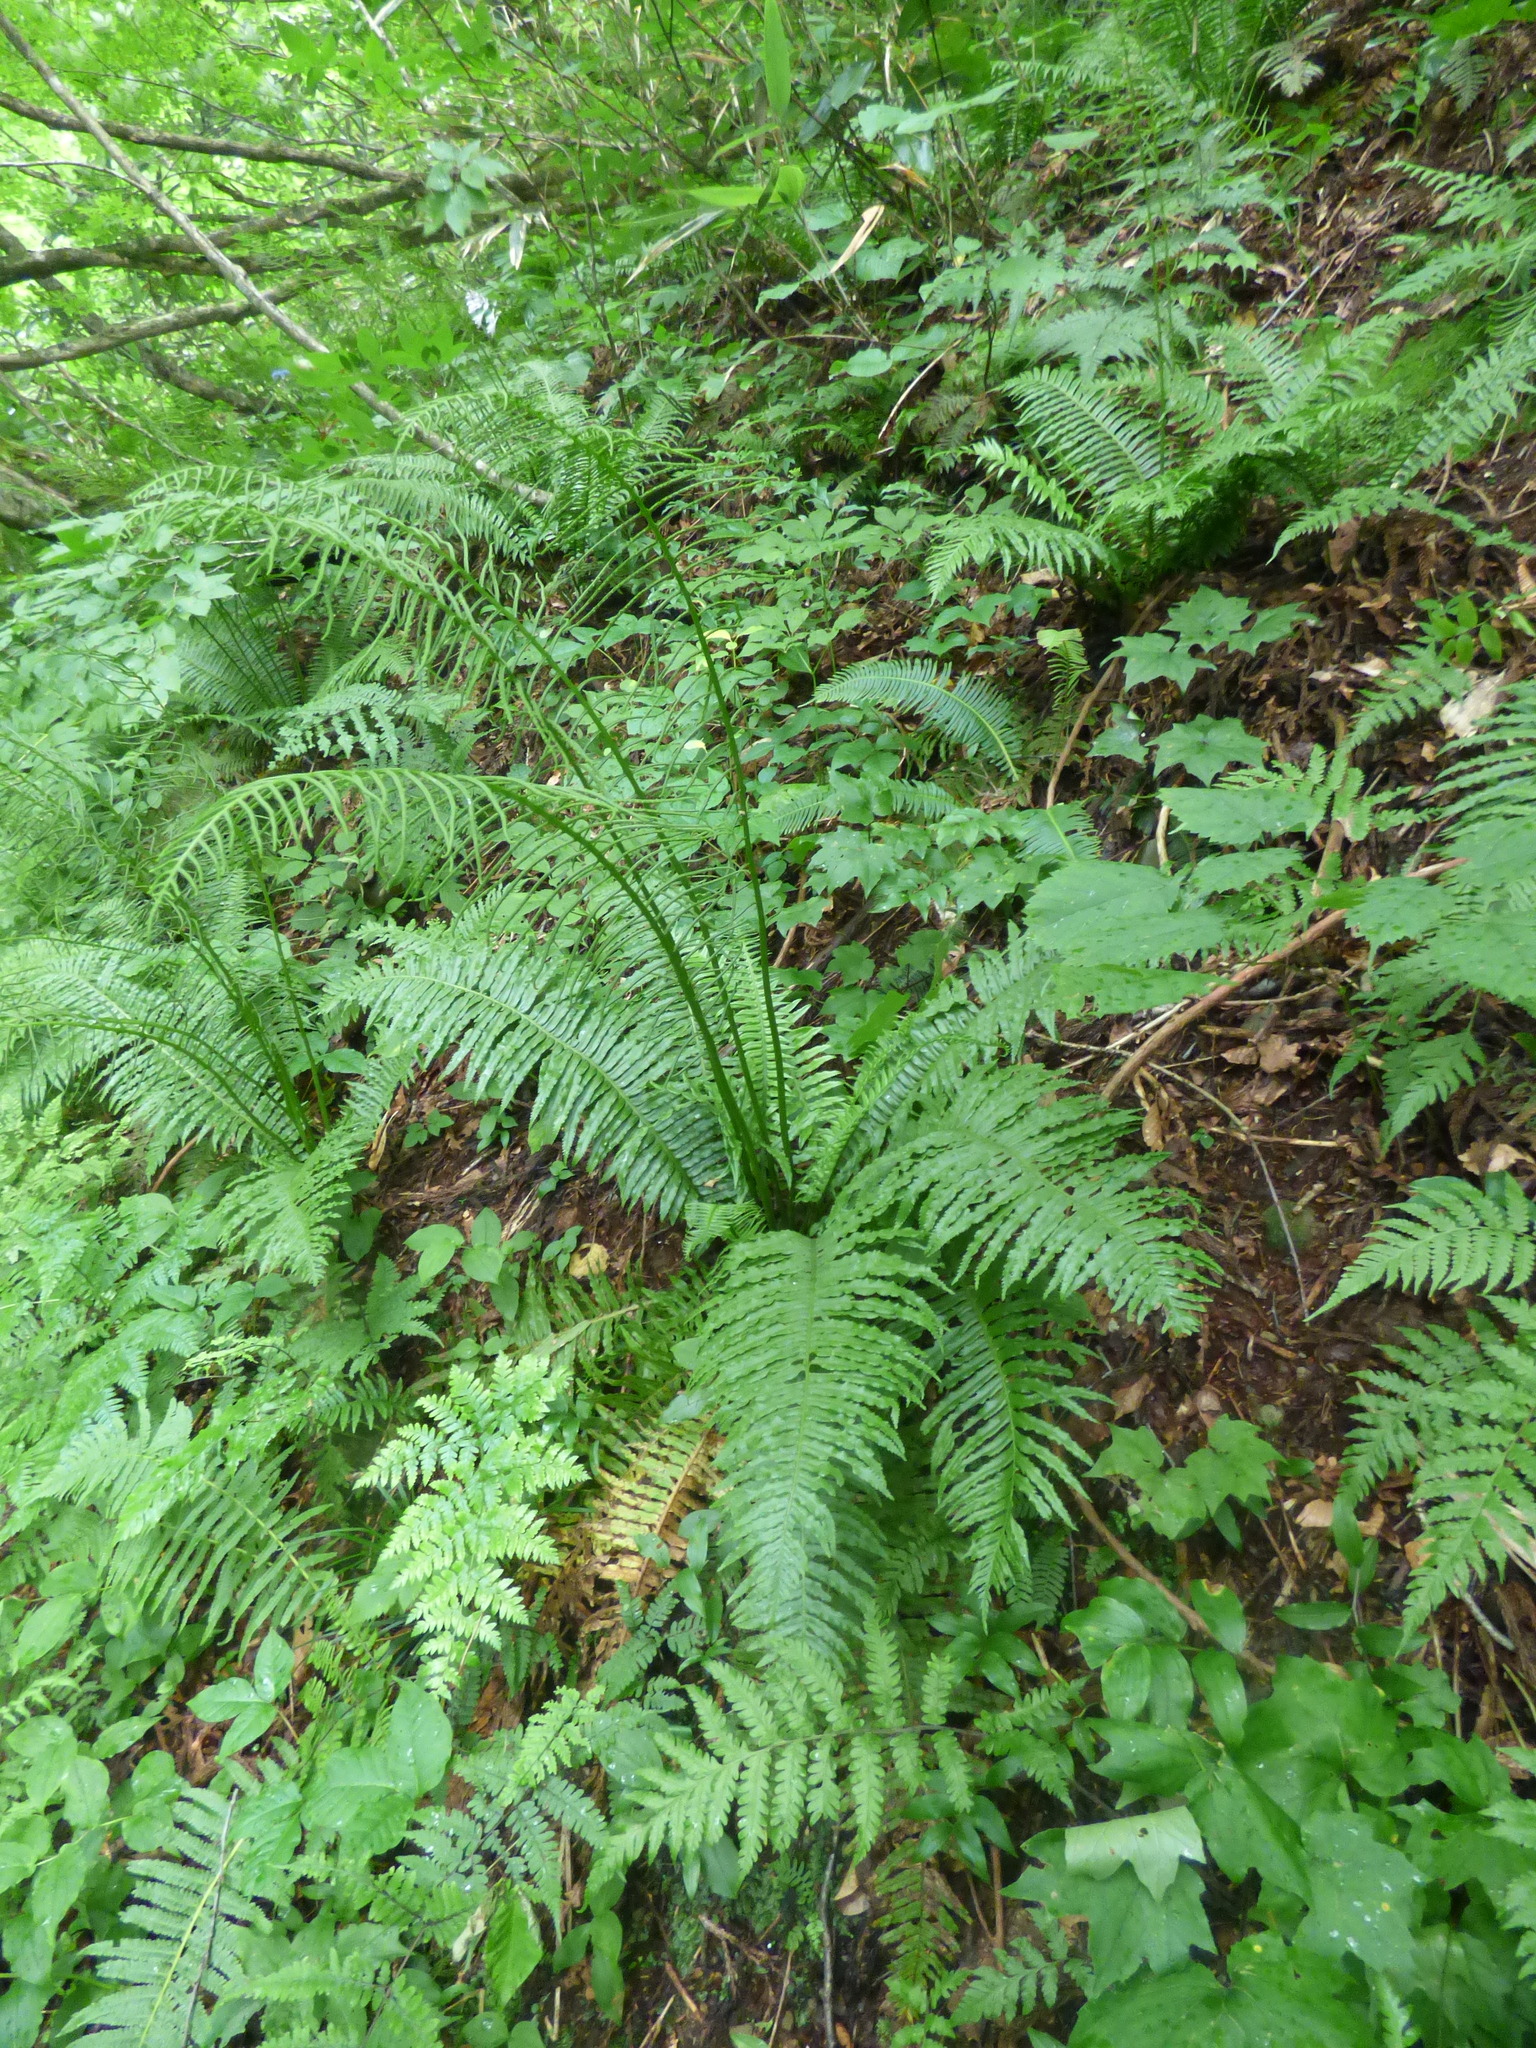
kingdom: Plantae
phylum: Tracheophyta
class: Polypodiopsida
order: Cyatheales
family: Plagiogyriaceae
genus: Plagiogyria
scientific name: Plagiogyria matsumureana
